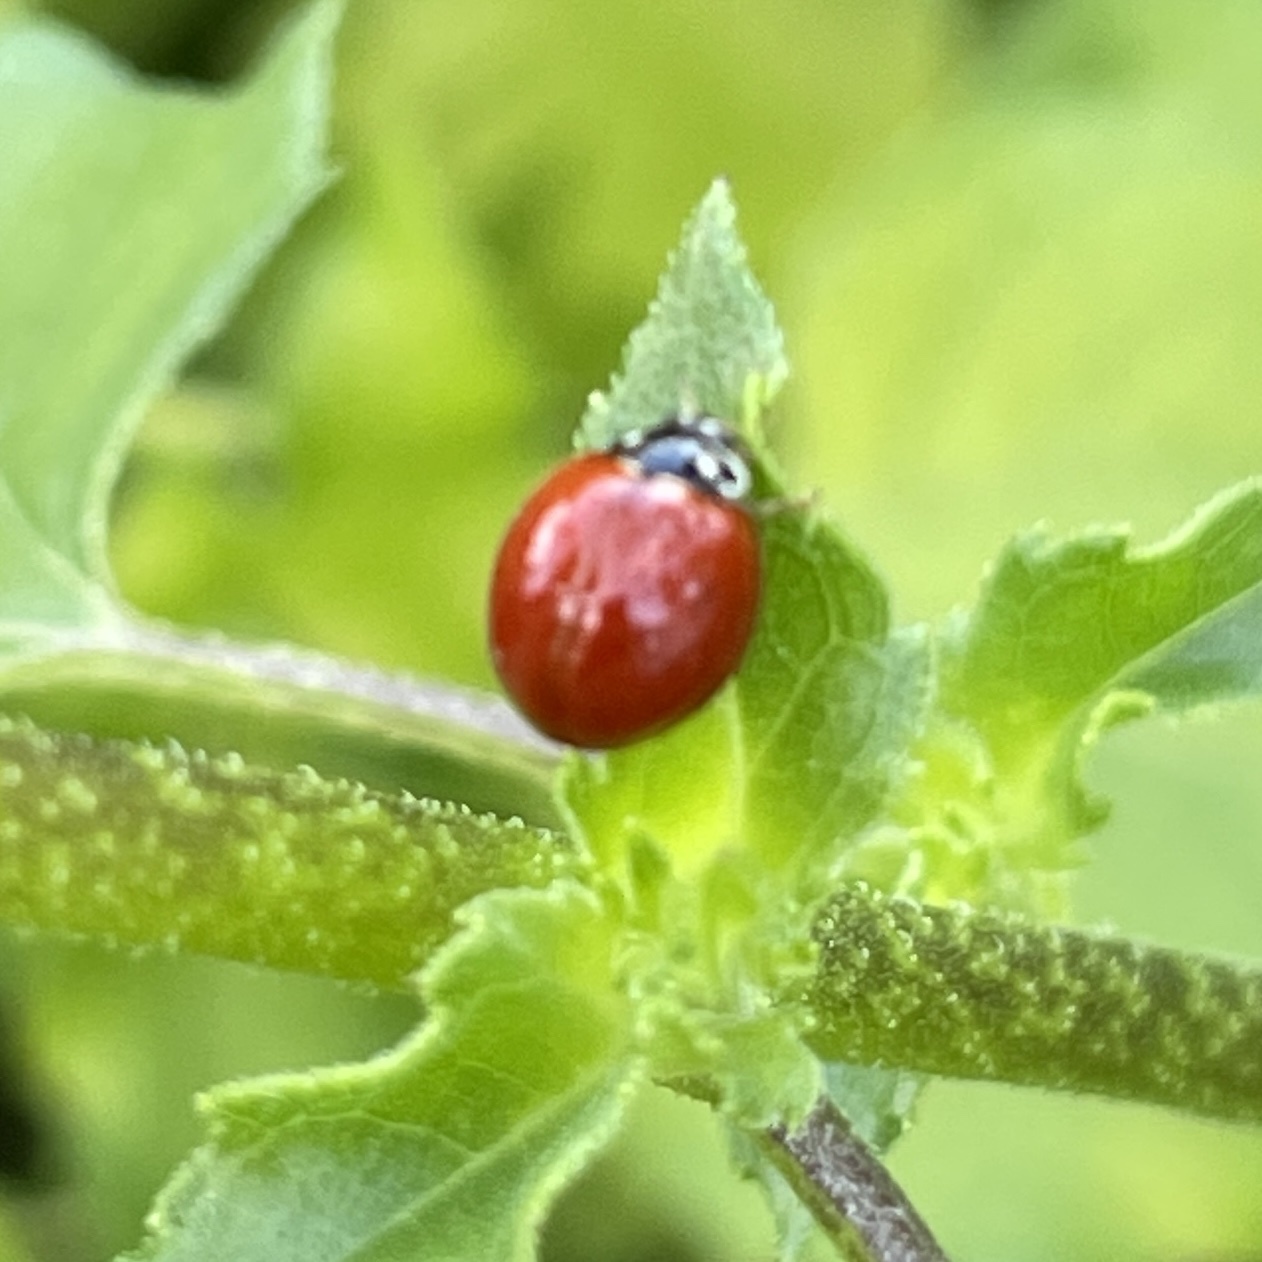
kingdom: Animalia
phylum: Arthropoda
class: Insecta
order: Coleoptera
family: Coccinellidae
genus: Cycloneda
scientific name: Cycloneda sanguinea
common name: Ladybird beetle
